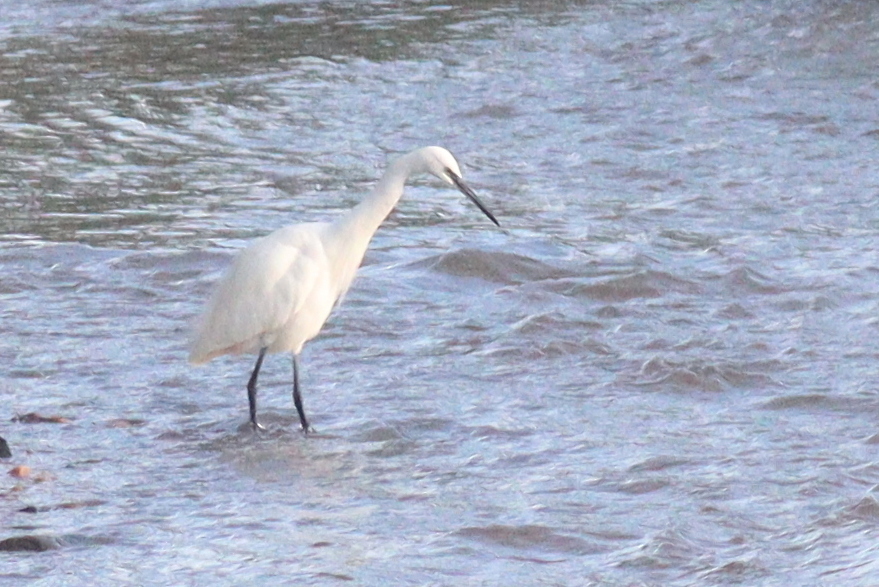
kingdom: Animalia
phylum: Chordata
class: Aves
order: Pelecaniformes
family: Ardeidae
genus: Egretta
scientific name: Egretta garzetta
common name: Little egret
